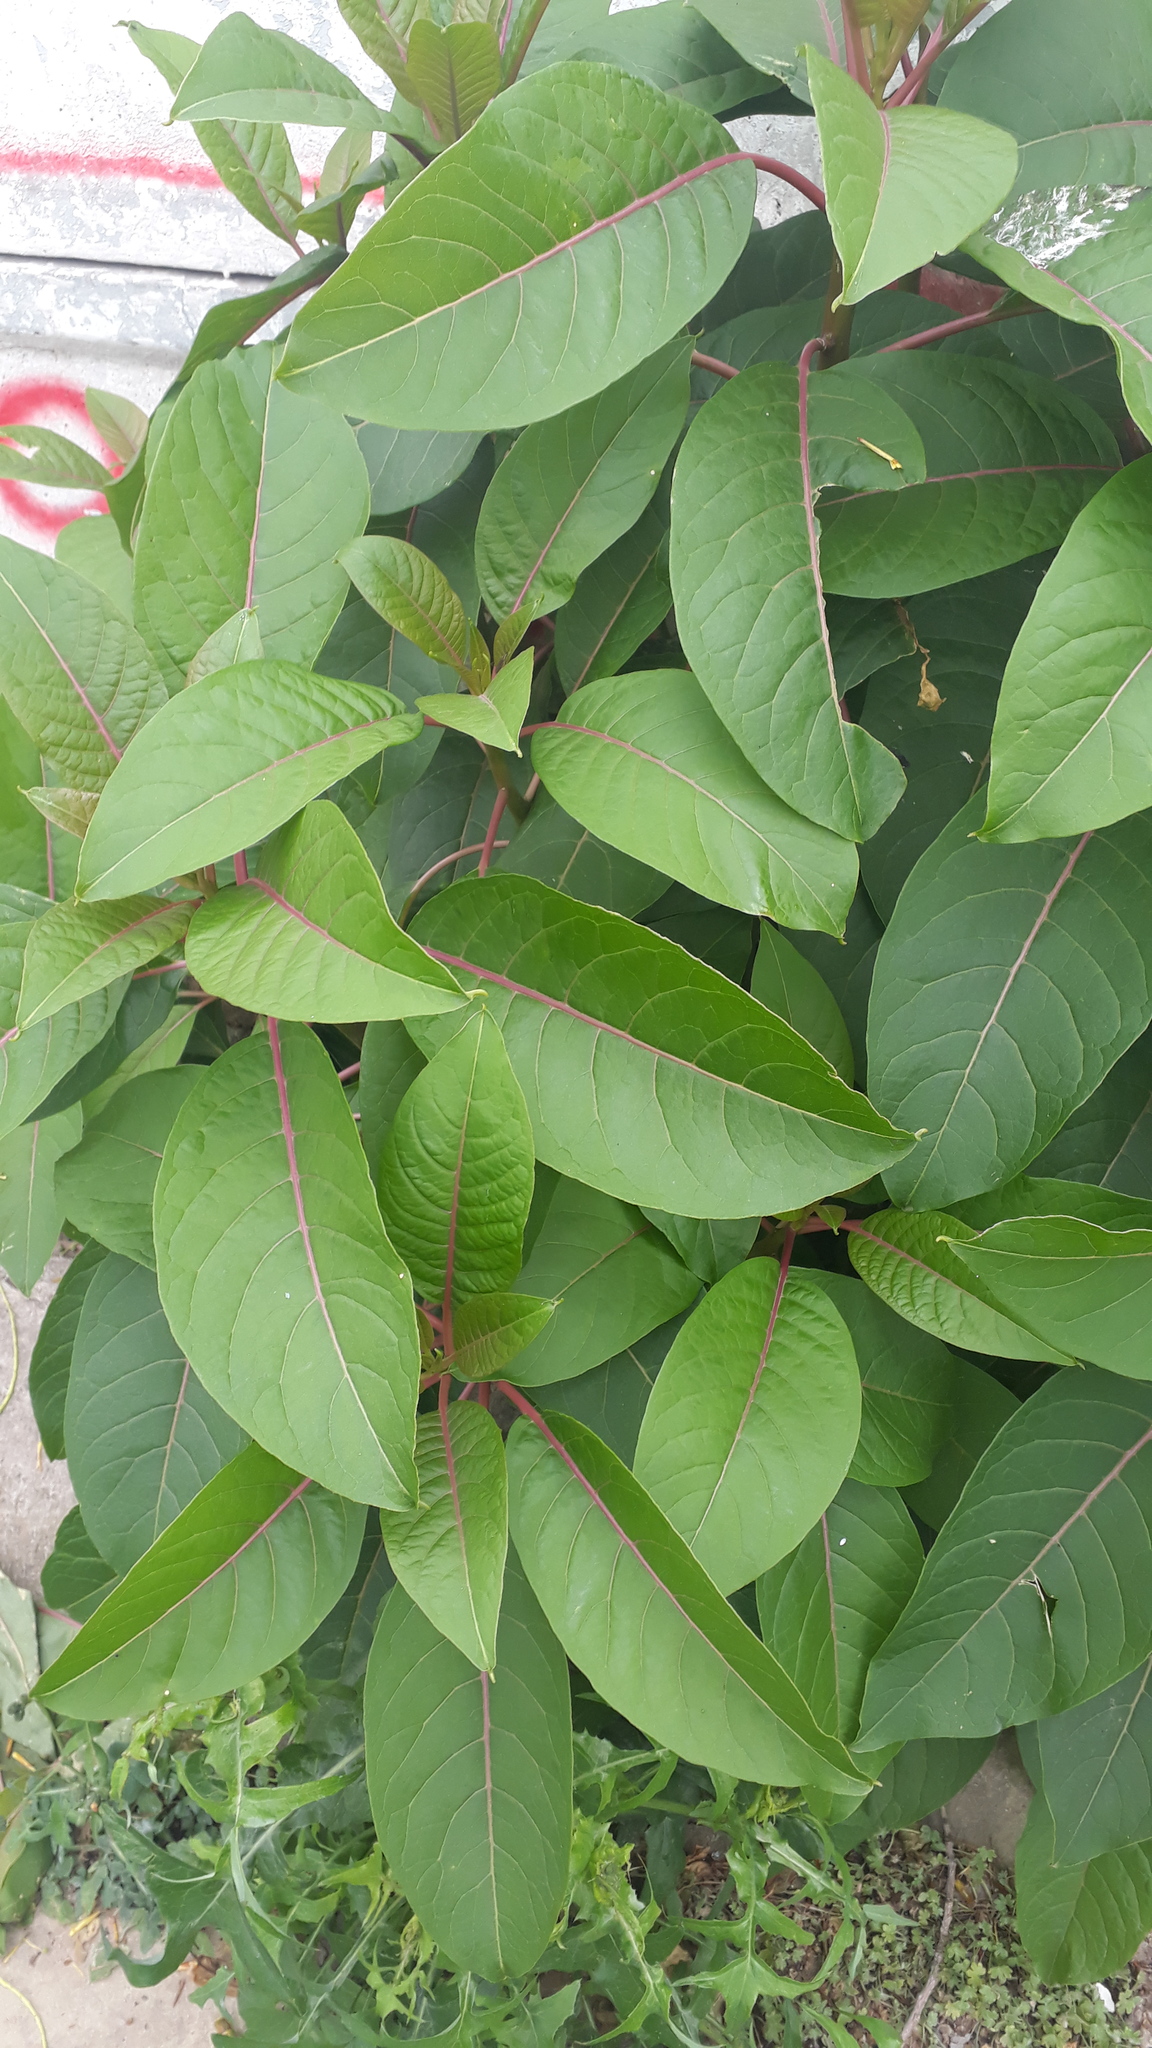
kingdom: Plantae
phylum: Tracheophyta
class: Magnoliopsida
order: Caryophyllales
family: Phytolaccaceae
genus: Phytolacca
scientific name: Phytolacca dioica
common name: Pokeweed
